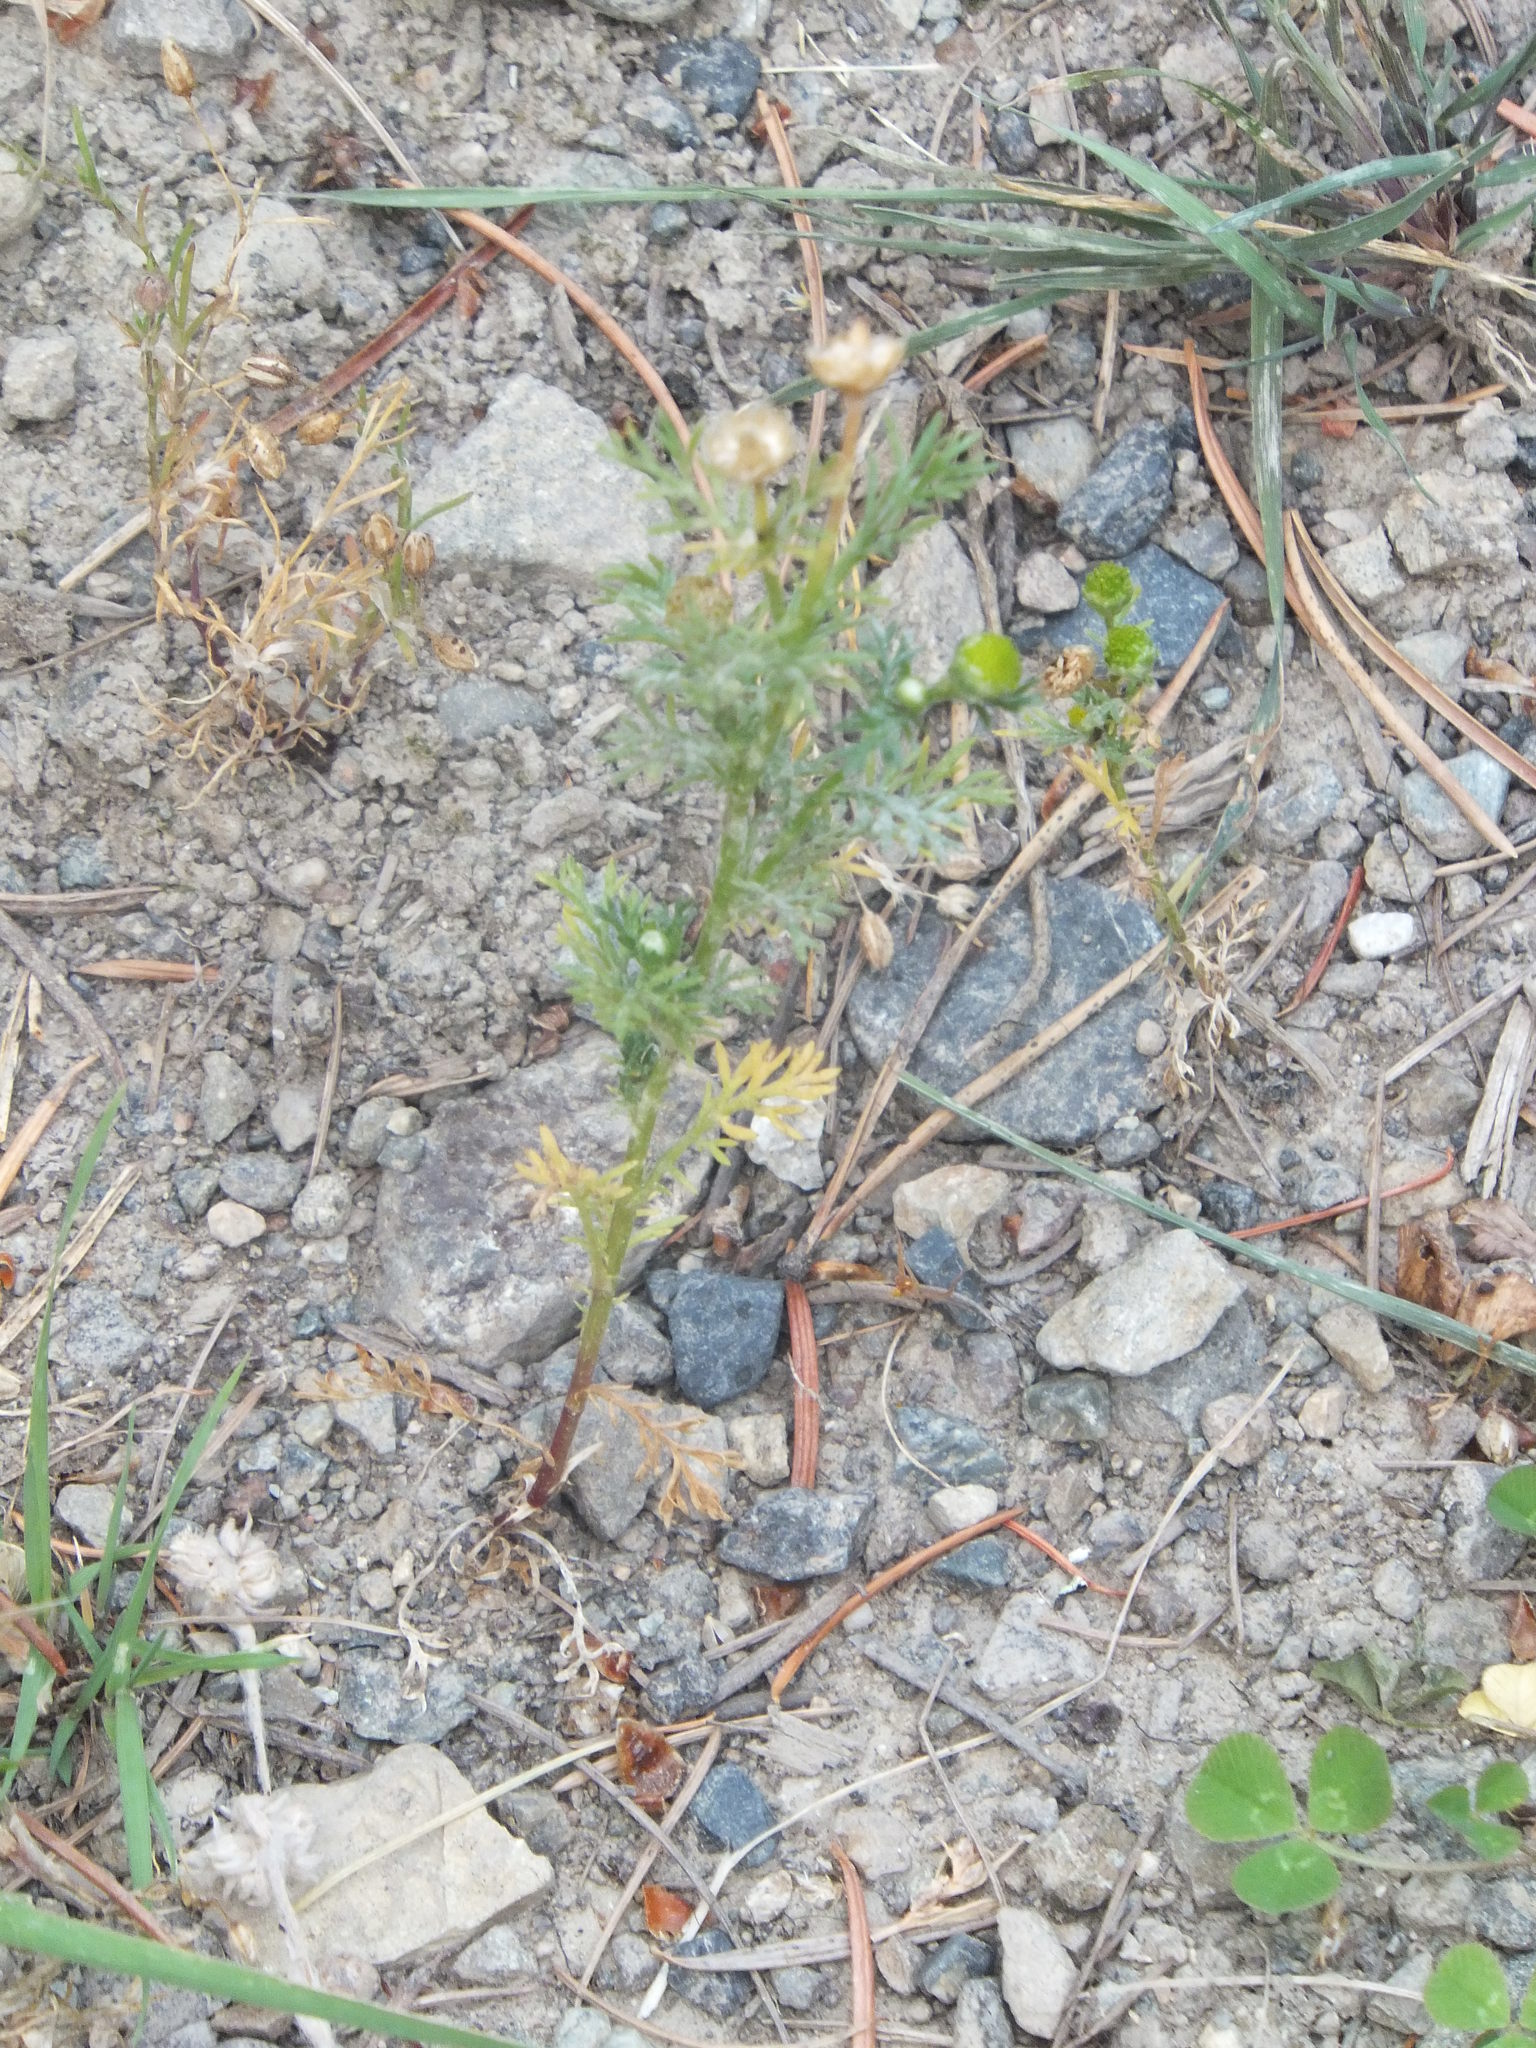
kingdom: Plantae
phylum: Tracheophyta
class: Magnoliopsida
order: Asterales
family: Asteraceae
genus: Matricaria
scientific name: Matricaria discoidea
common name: Disc mayweed
